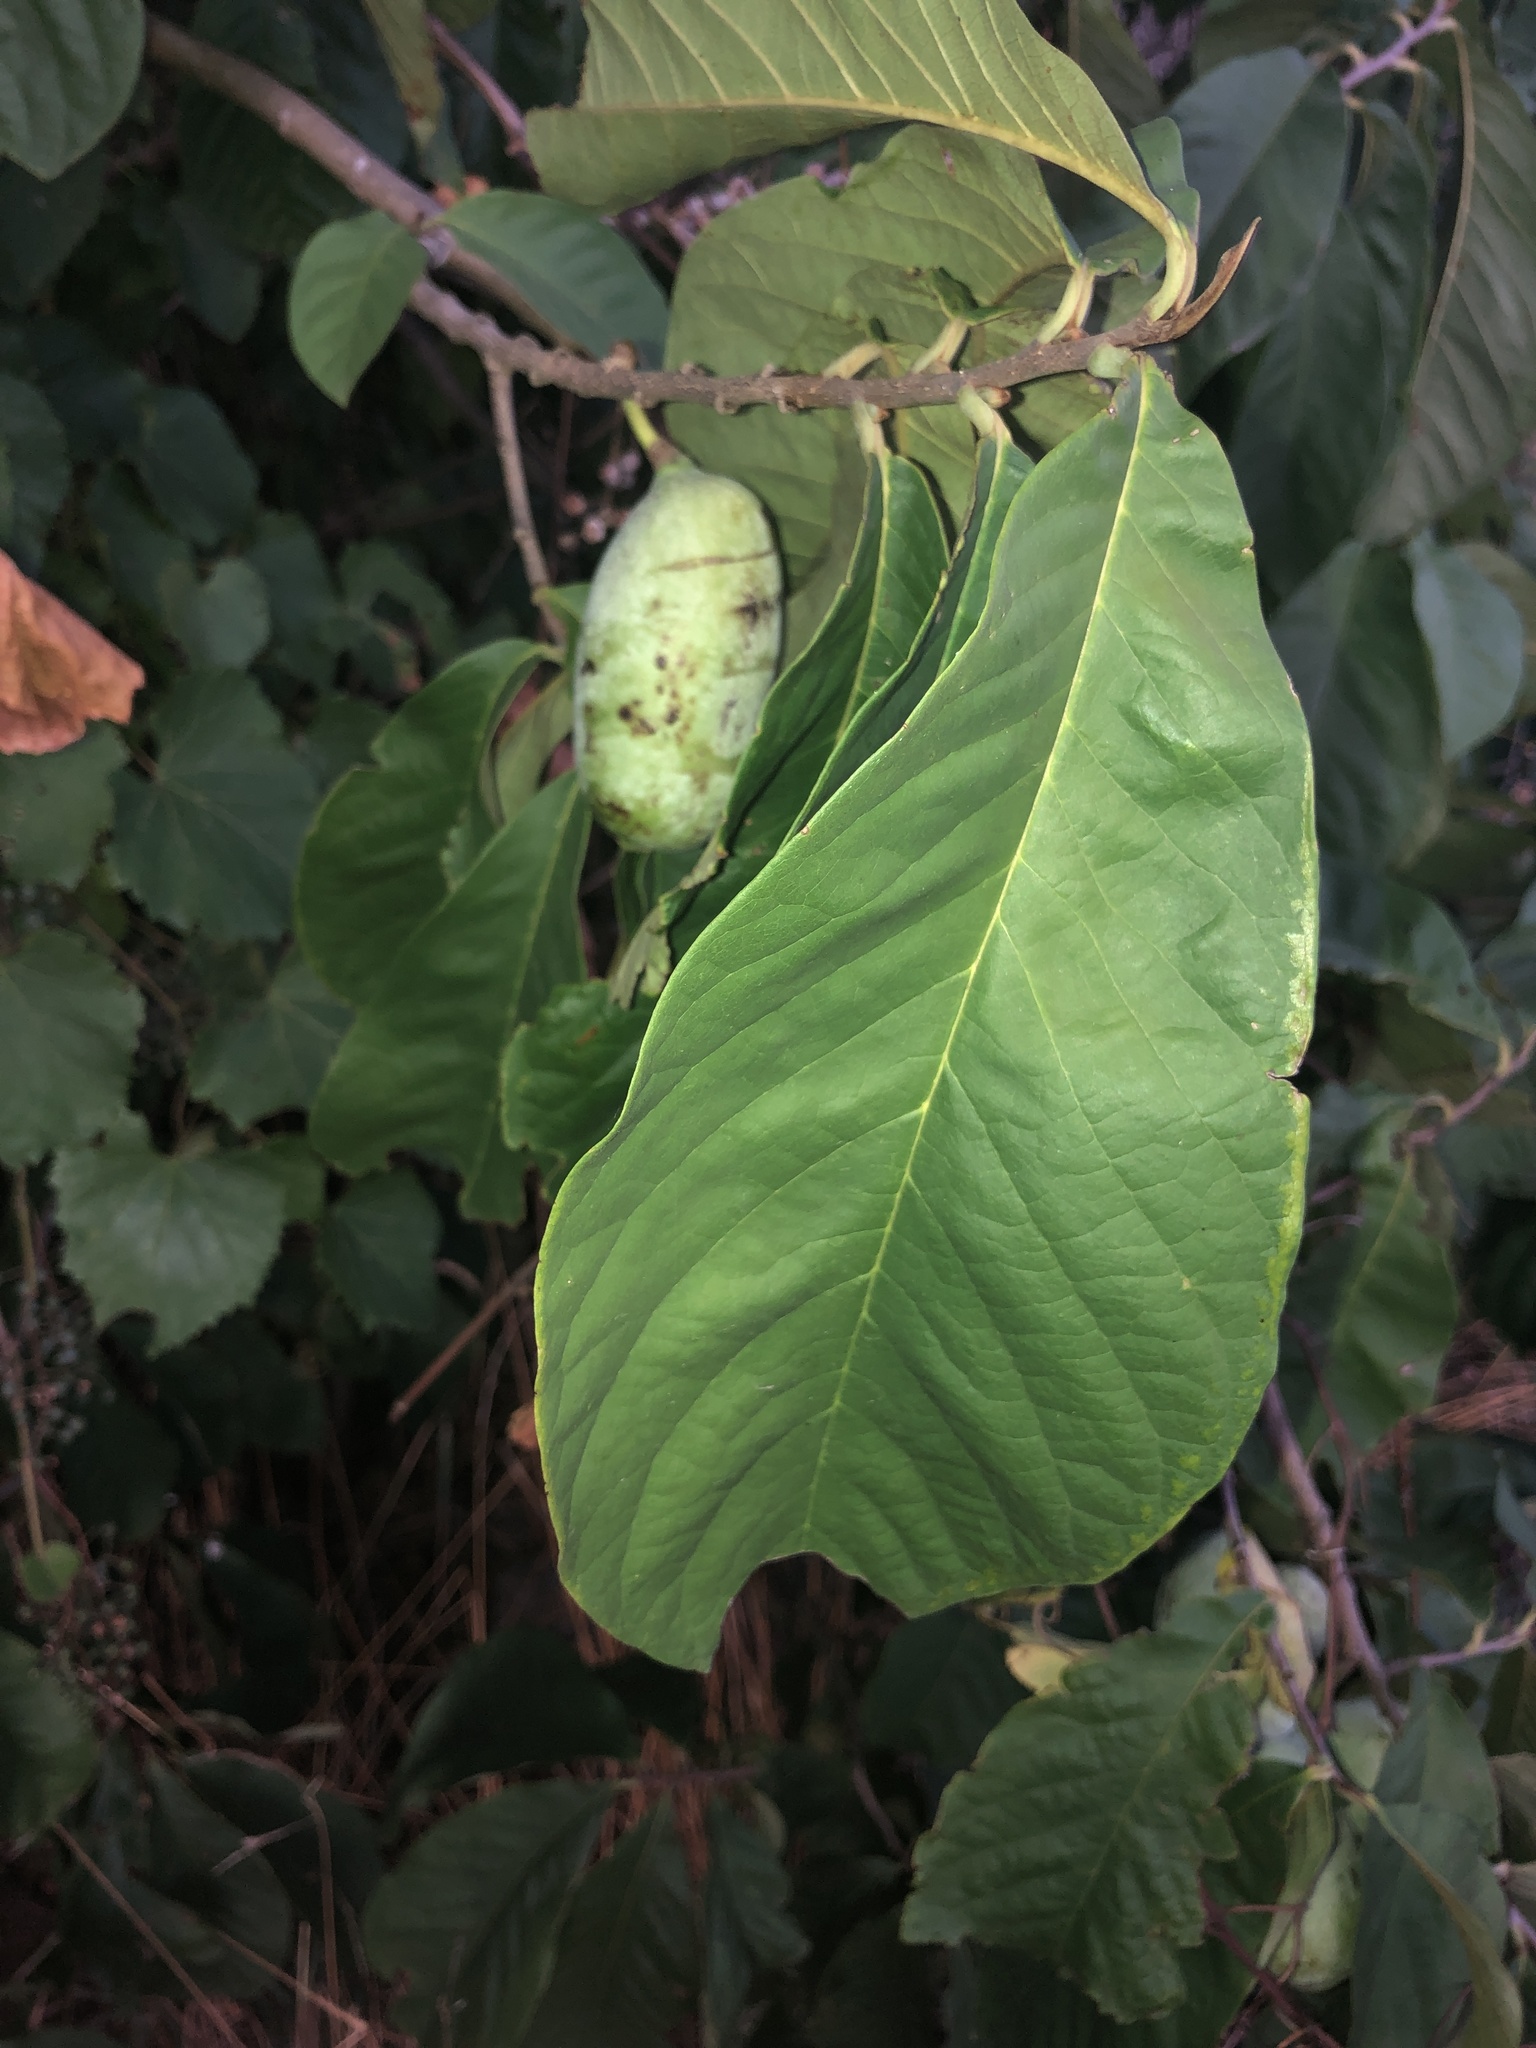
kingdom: Plantae
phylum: Tracheophyta
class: Magnoliopsida
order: Magnoliales
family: Annonaceae
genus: Asimina
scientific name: Asimina triloba
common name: Dog-banana
